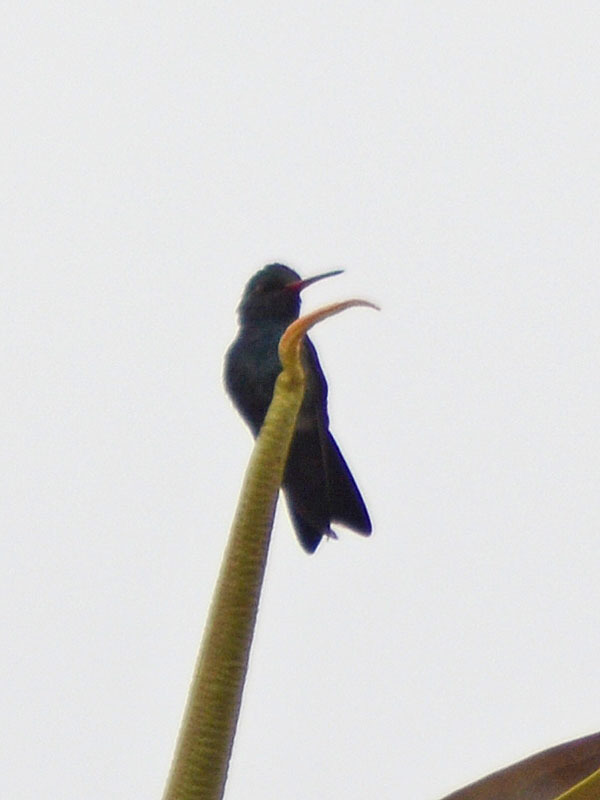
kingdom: Animalia
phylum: Chordata
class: Aves
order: Apodiformes
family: Trochilidae
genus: Cynanthus
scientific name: Cynanthus latirostris
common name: Broad-billed hummingbird
